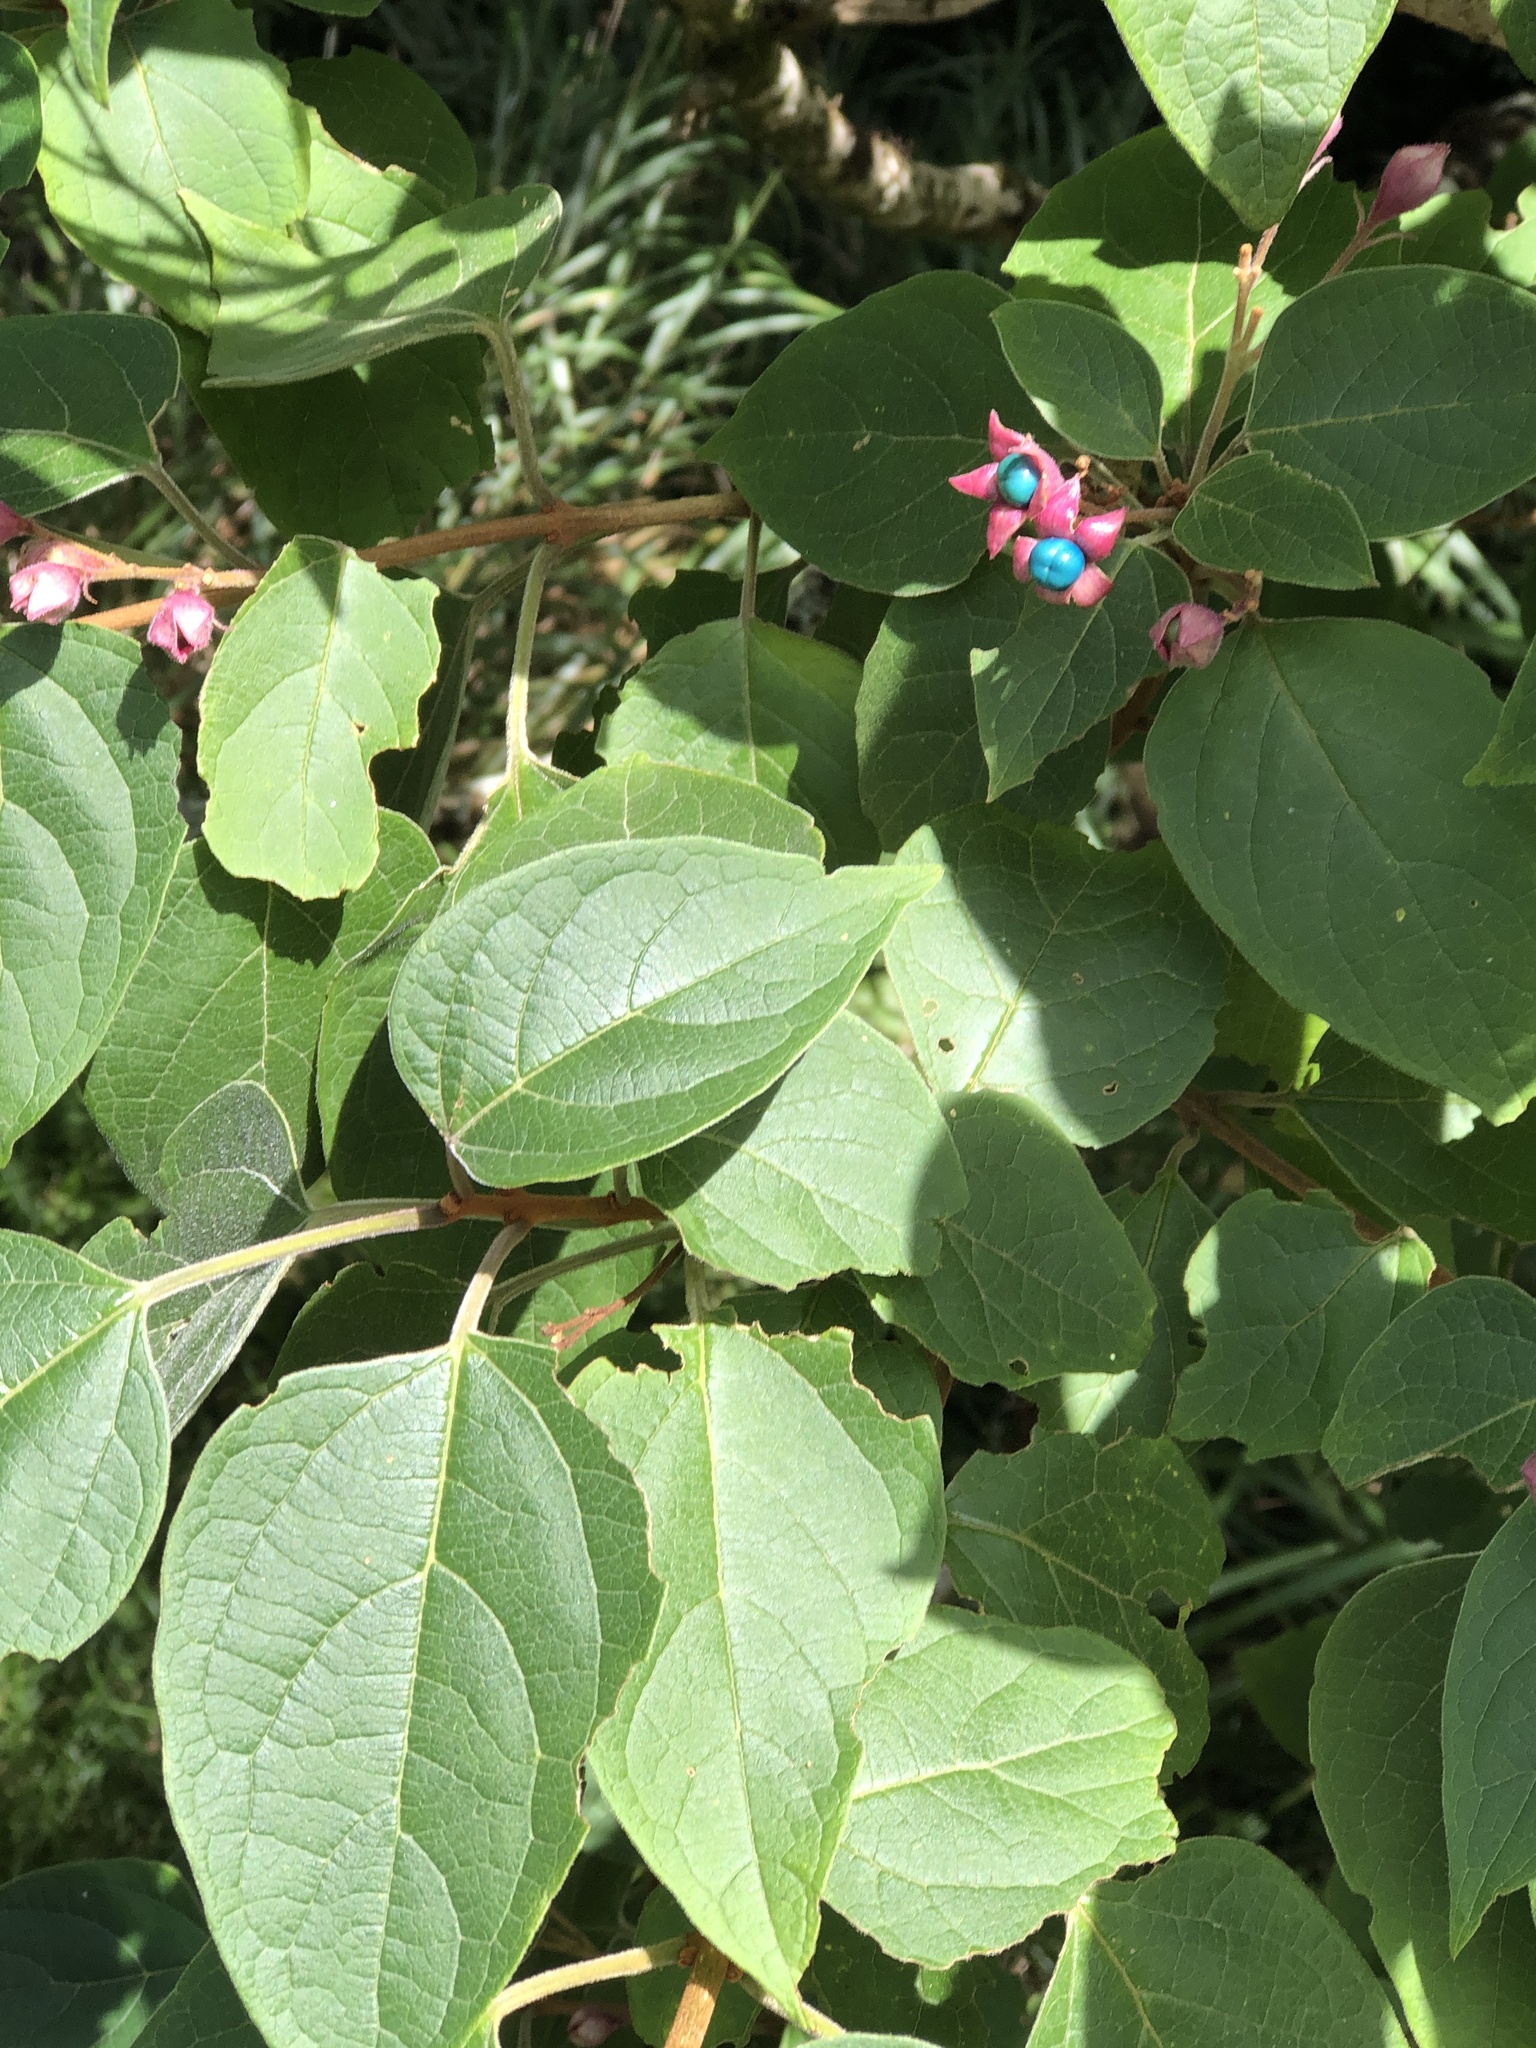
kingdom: Plantae
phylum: Tracheophyta
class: Magnoliopsida
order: Lamiales
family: Lamiaceae
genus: Clerodendrum
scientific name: Clerodendrum trichotomum
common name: Harlequin glorybower
